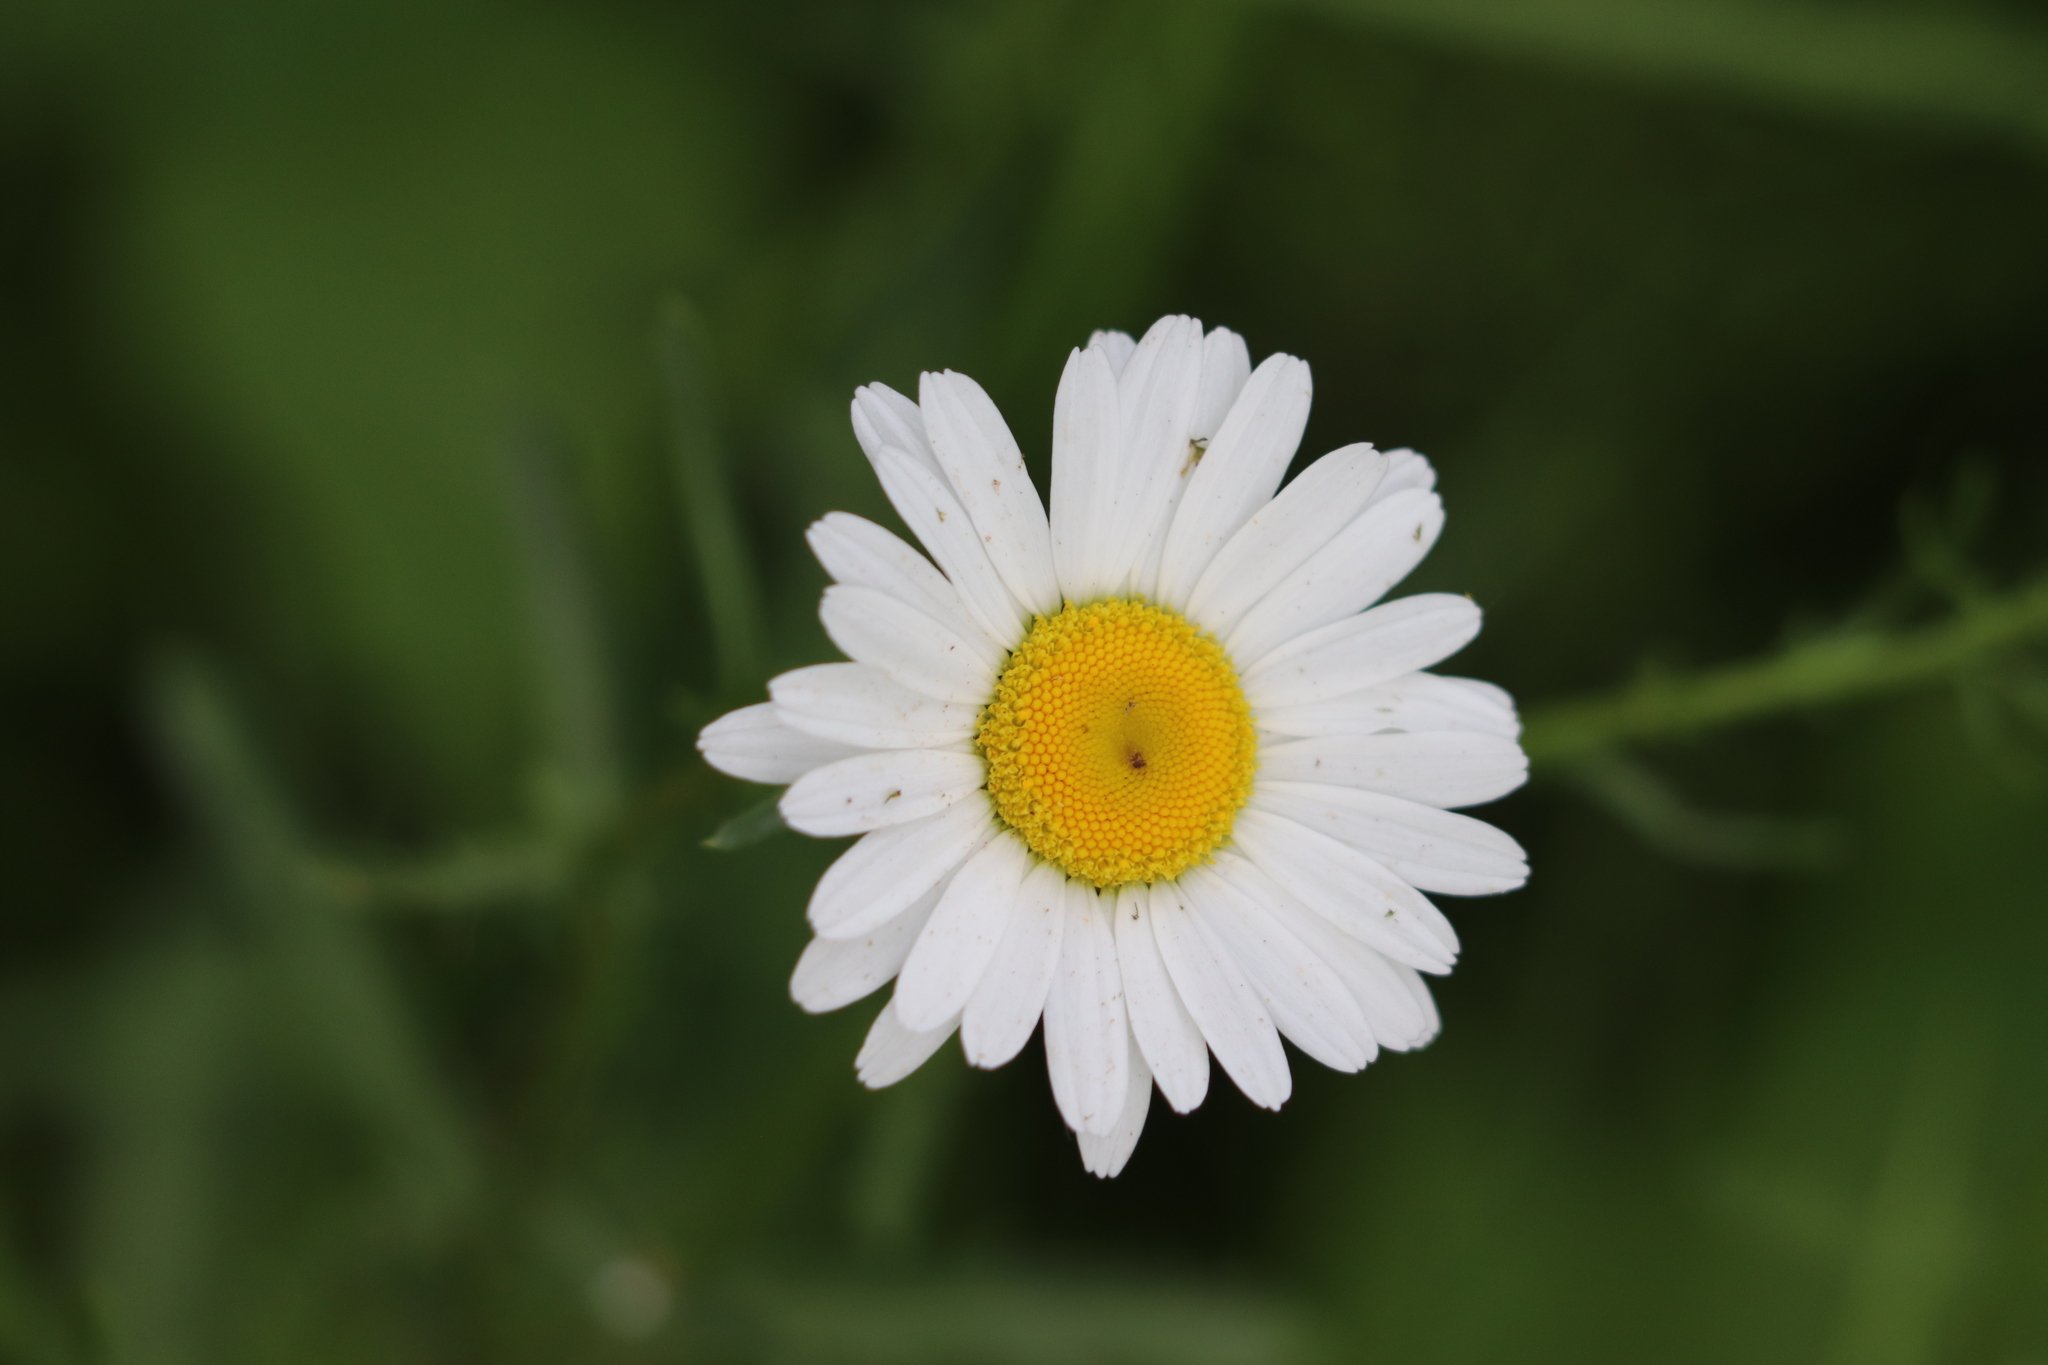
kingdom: Plantae
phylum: Tracheophyta
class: Magnoliopsida
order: Asterales
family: Asteraceae
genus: Leucanthemum
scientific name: Leucanthemum vulgare
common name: Oxeye daisy
